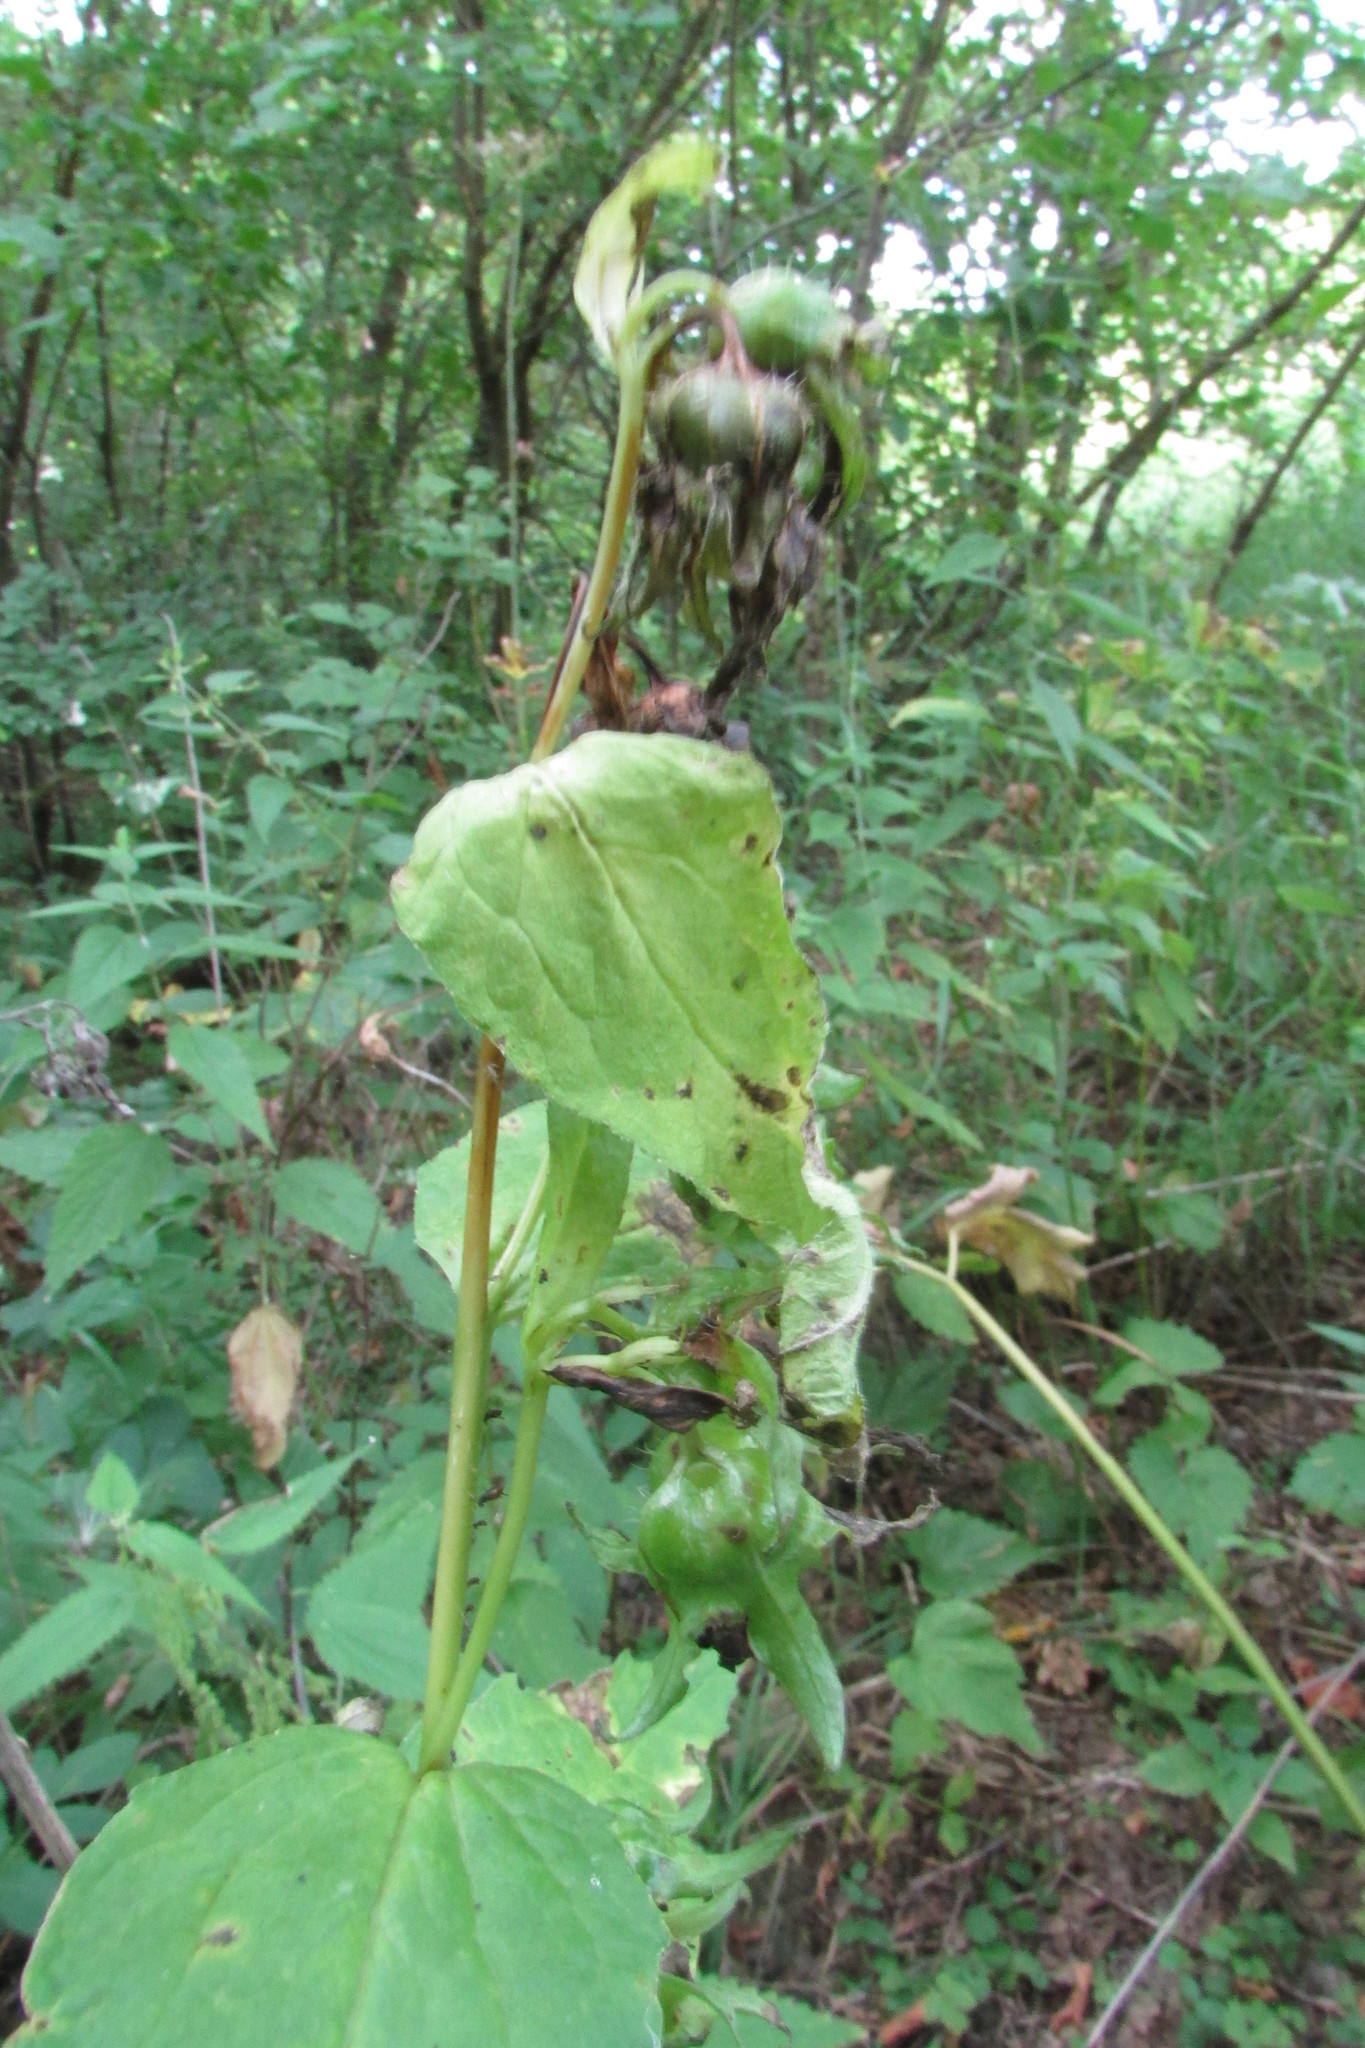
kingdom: Plantae
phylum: Tracheophyta
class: Magnoliopsida
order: Asterales
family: Campanulaceae
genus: Campanula
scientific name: Campanula trachelium
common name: Nettle-leaved bellflower
